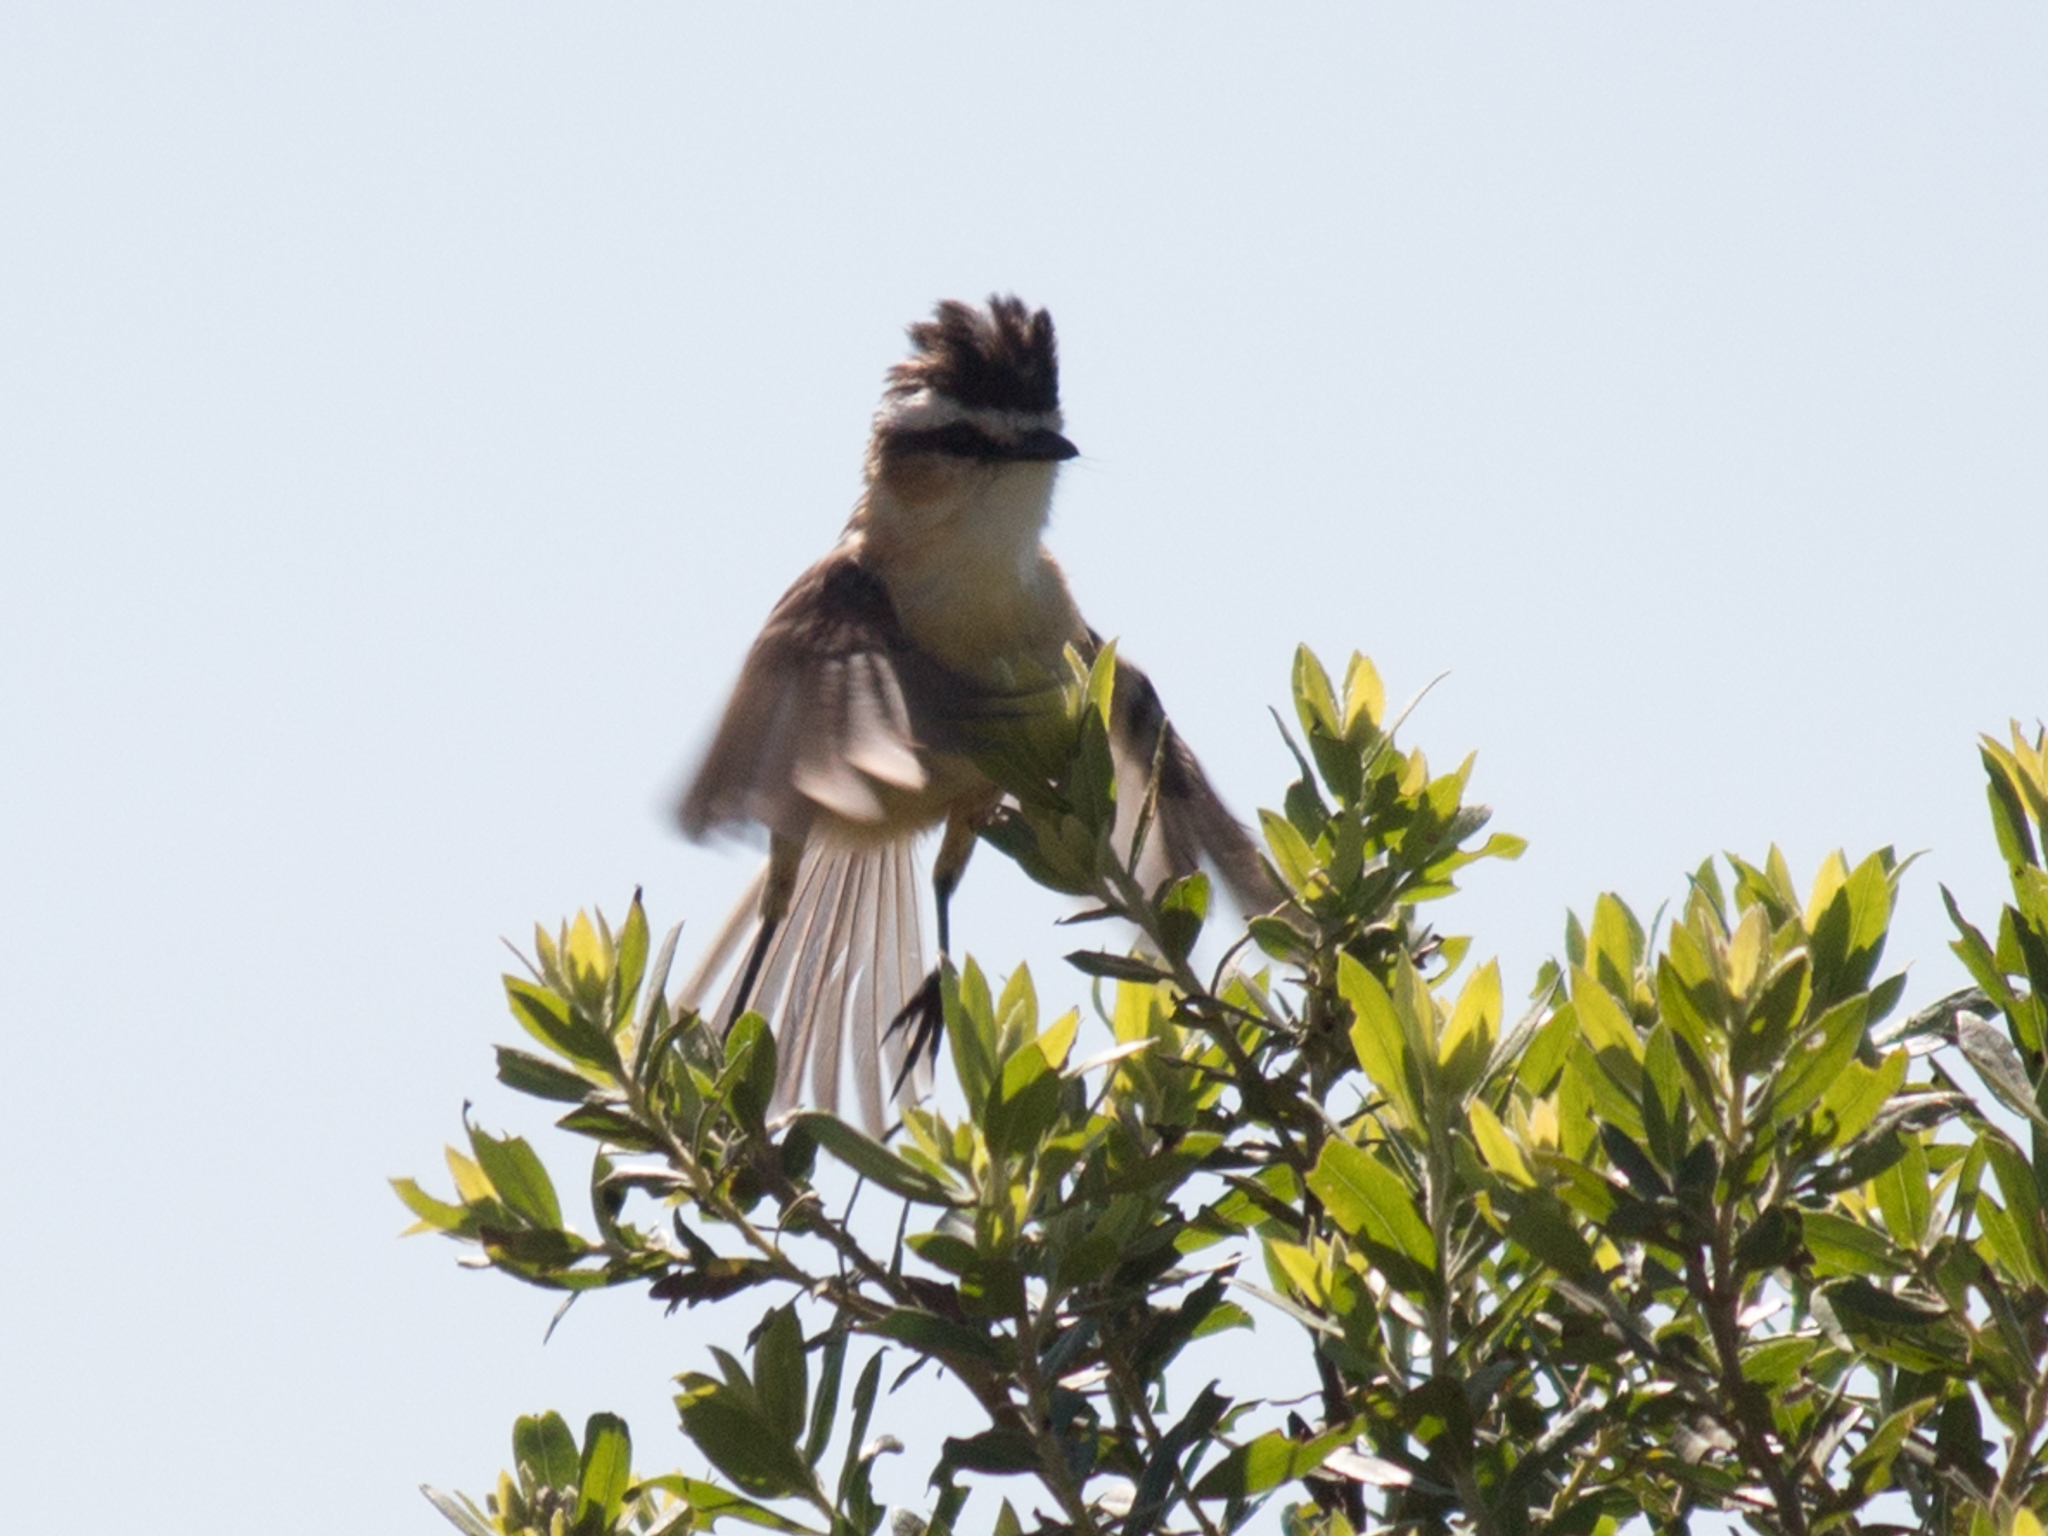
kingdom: Animalia
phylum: Chordata
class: Aves
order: Passeriformes
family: Tyrannidae
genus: Culicivora
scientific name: Culicivora caudacuta
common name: Sharp-tailed grass tyrant
